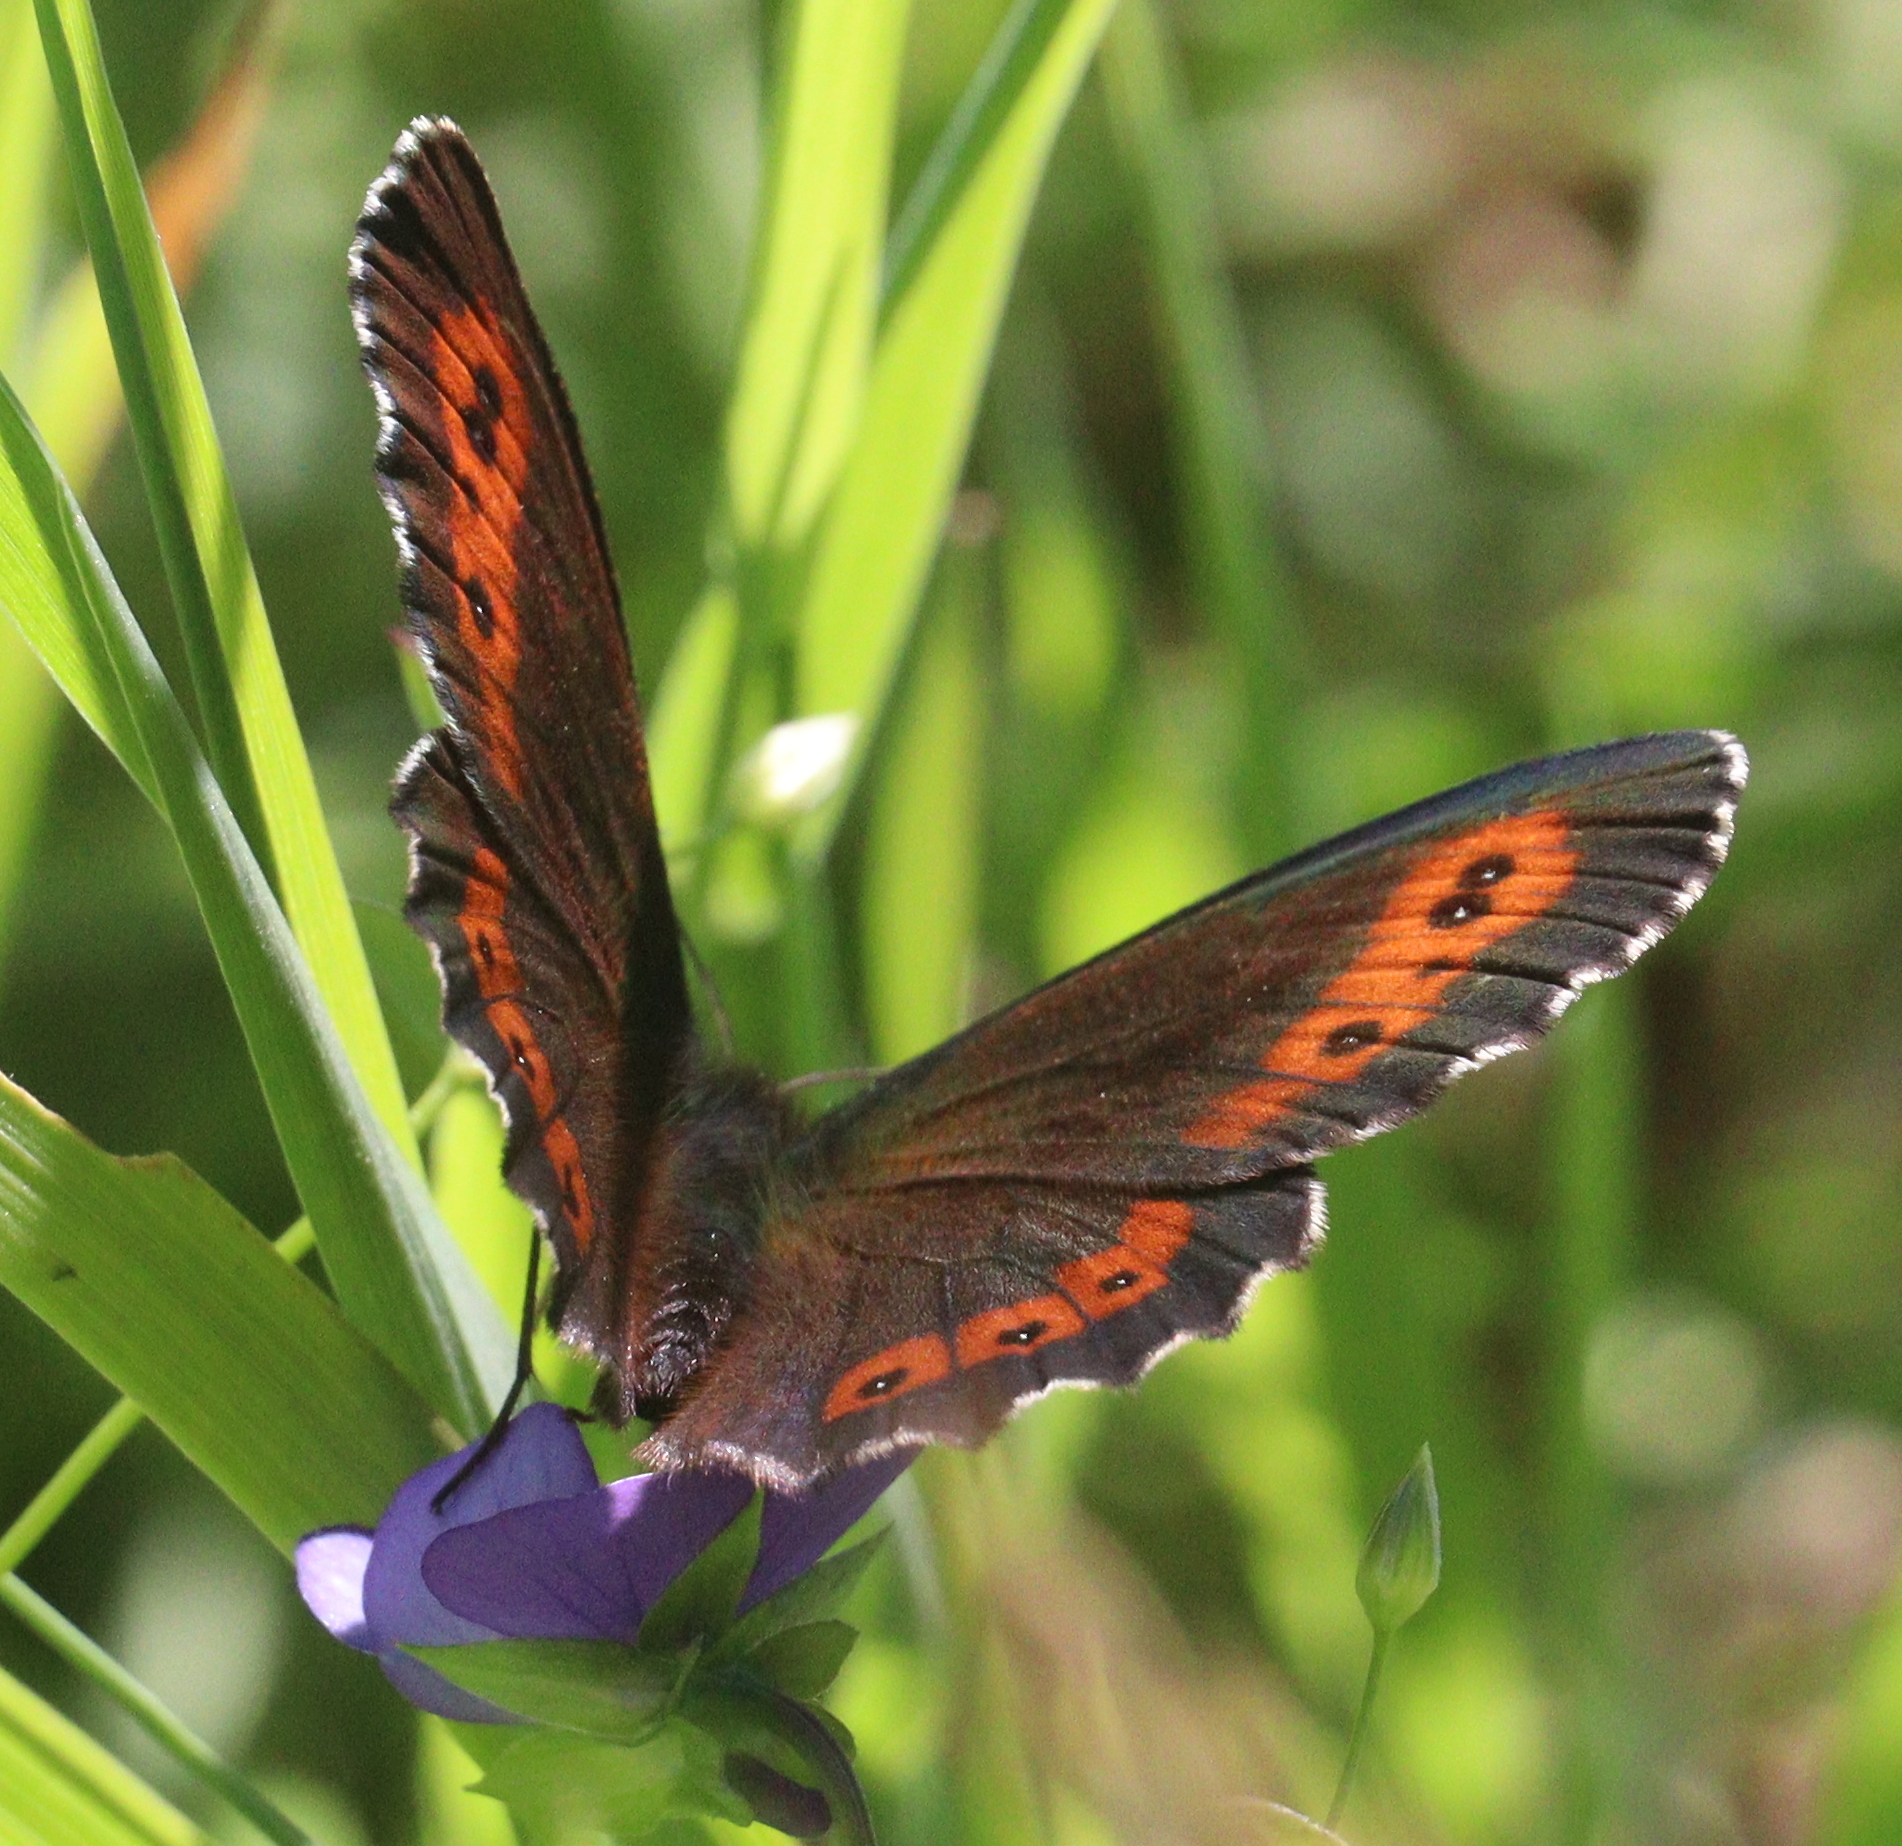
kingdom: Animalia
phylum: Arthropoda
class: Insecta
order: Lepidoptera
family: Nymphalidae
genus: Erebia
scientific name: Erebia ligea
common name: Arran brown
